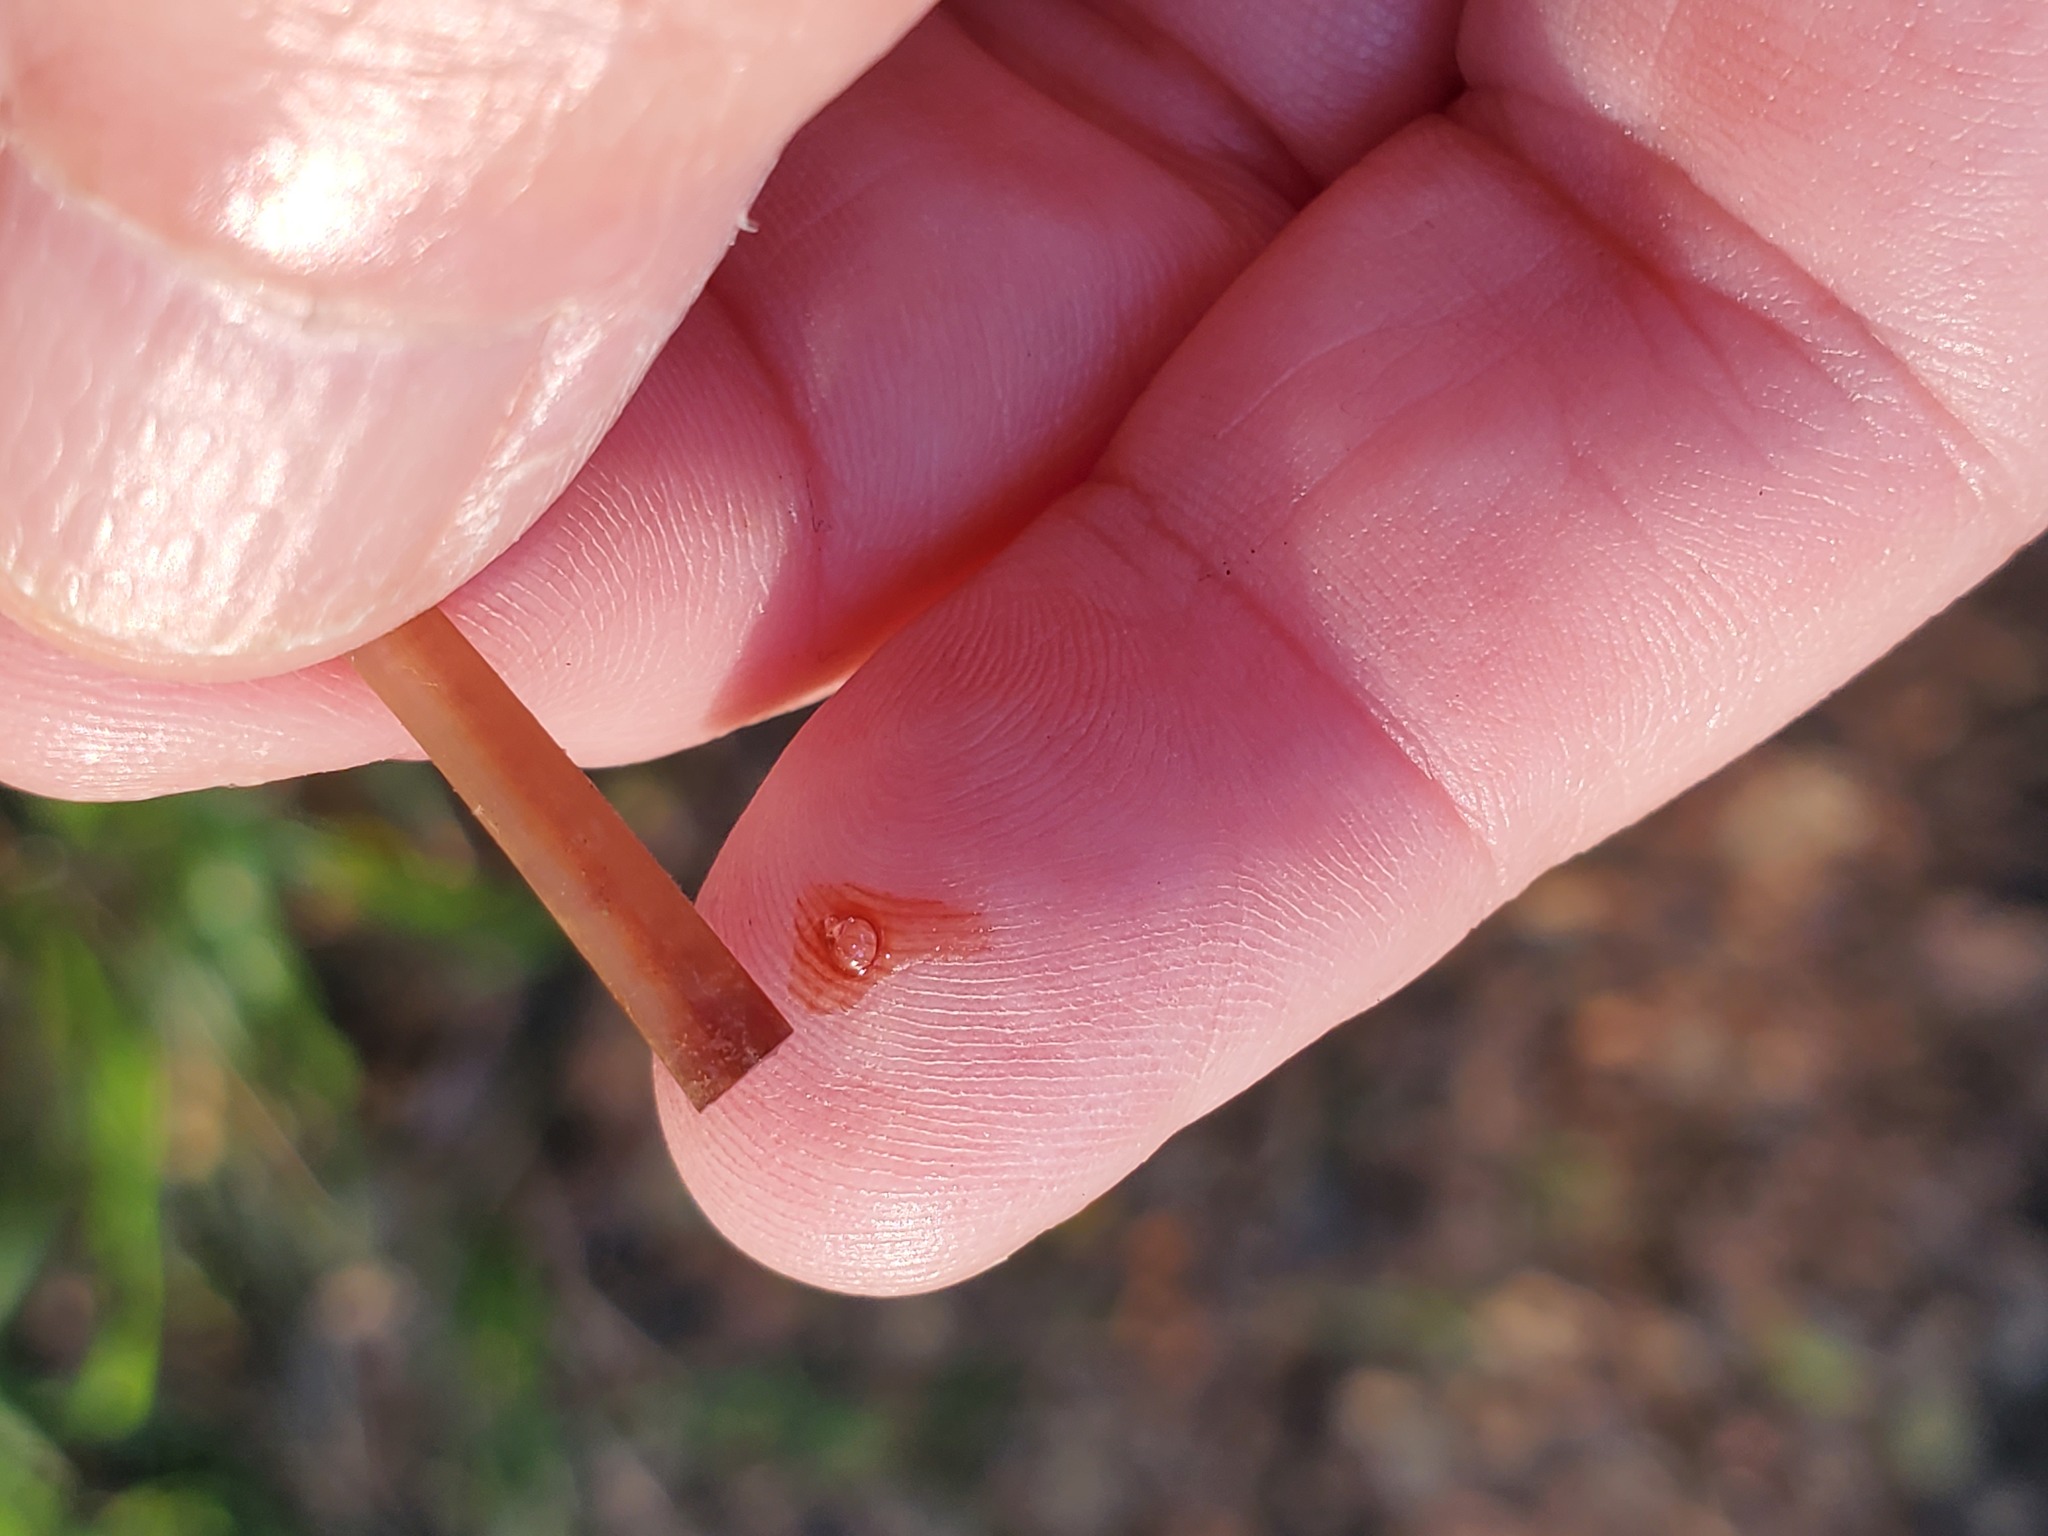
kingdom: Fungi
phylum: Basidiomycota
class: Agaricomycetes
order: Agaricales
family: Mycenaceae
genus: Mycena
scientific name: Mycena
